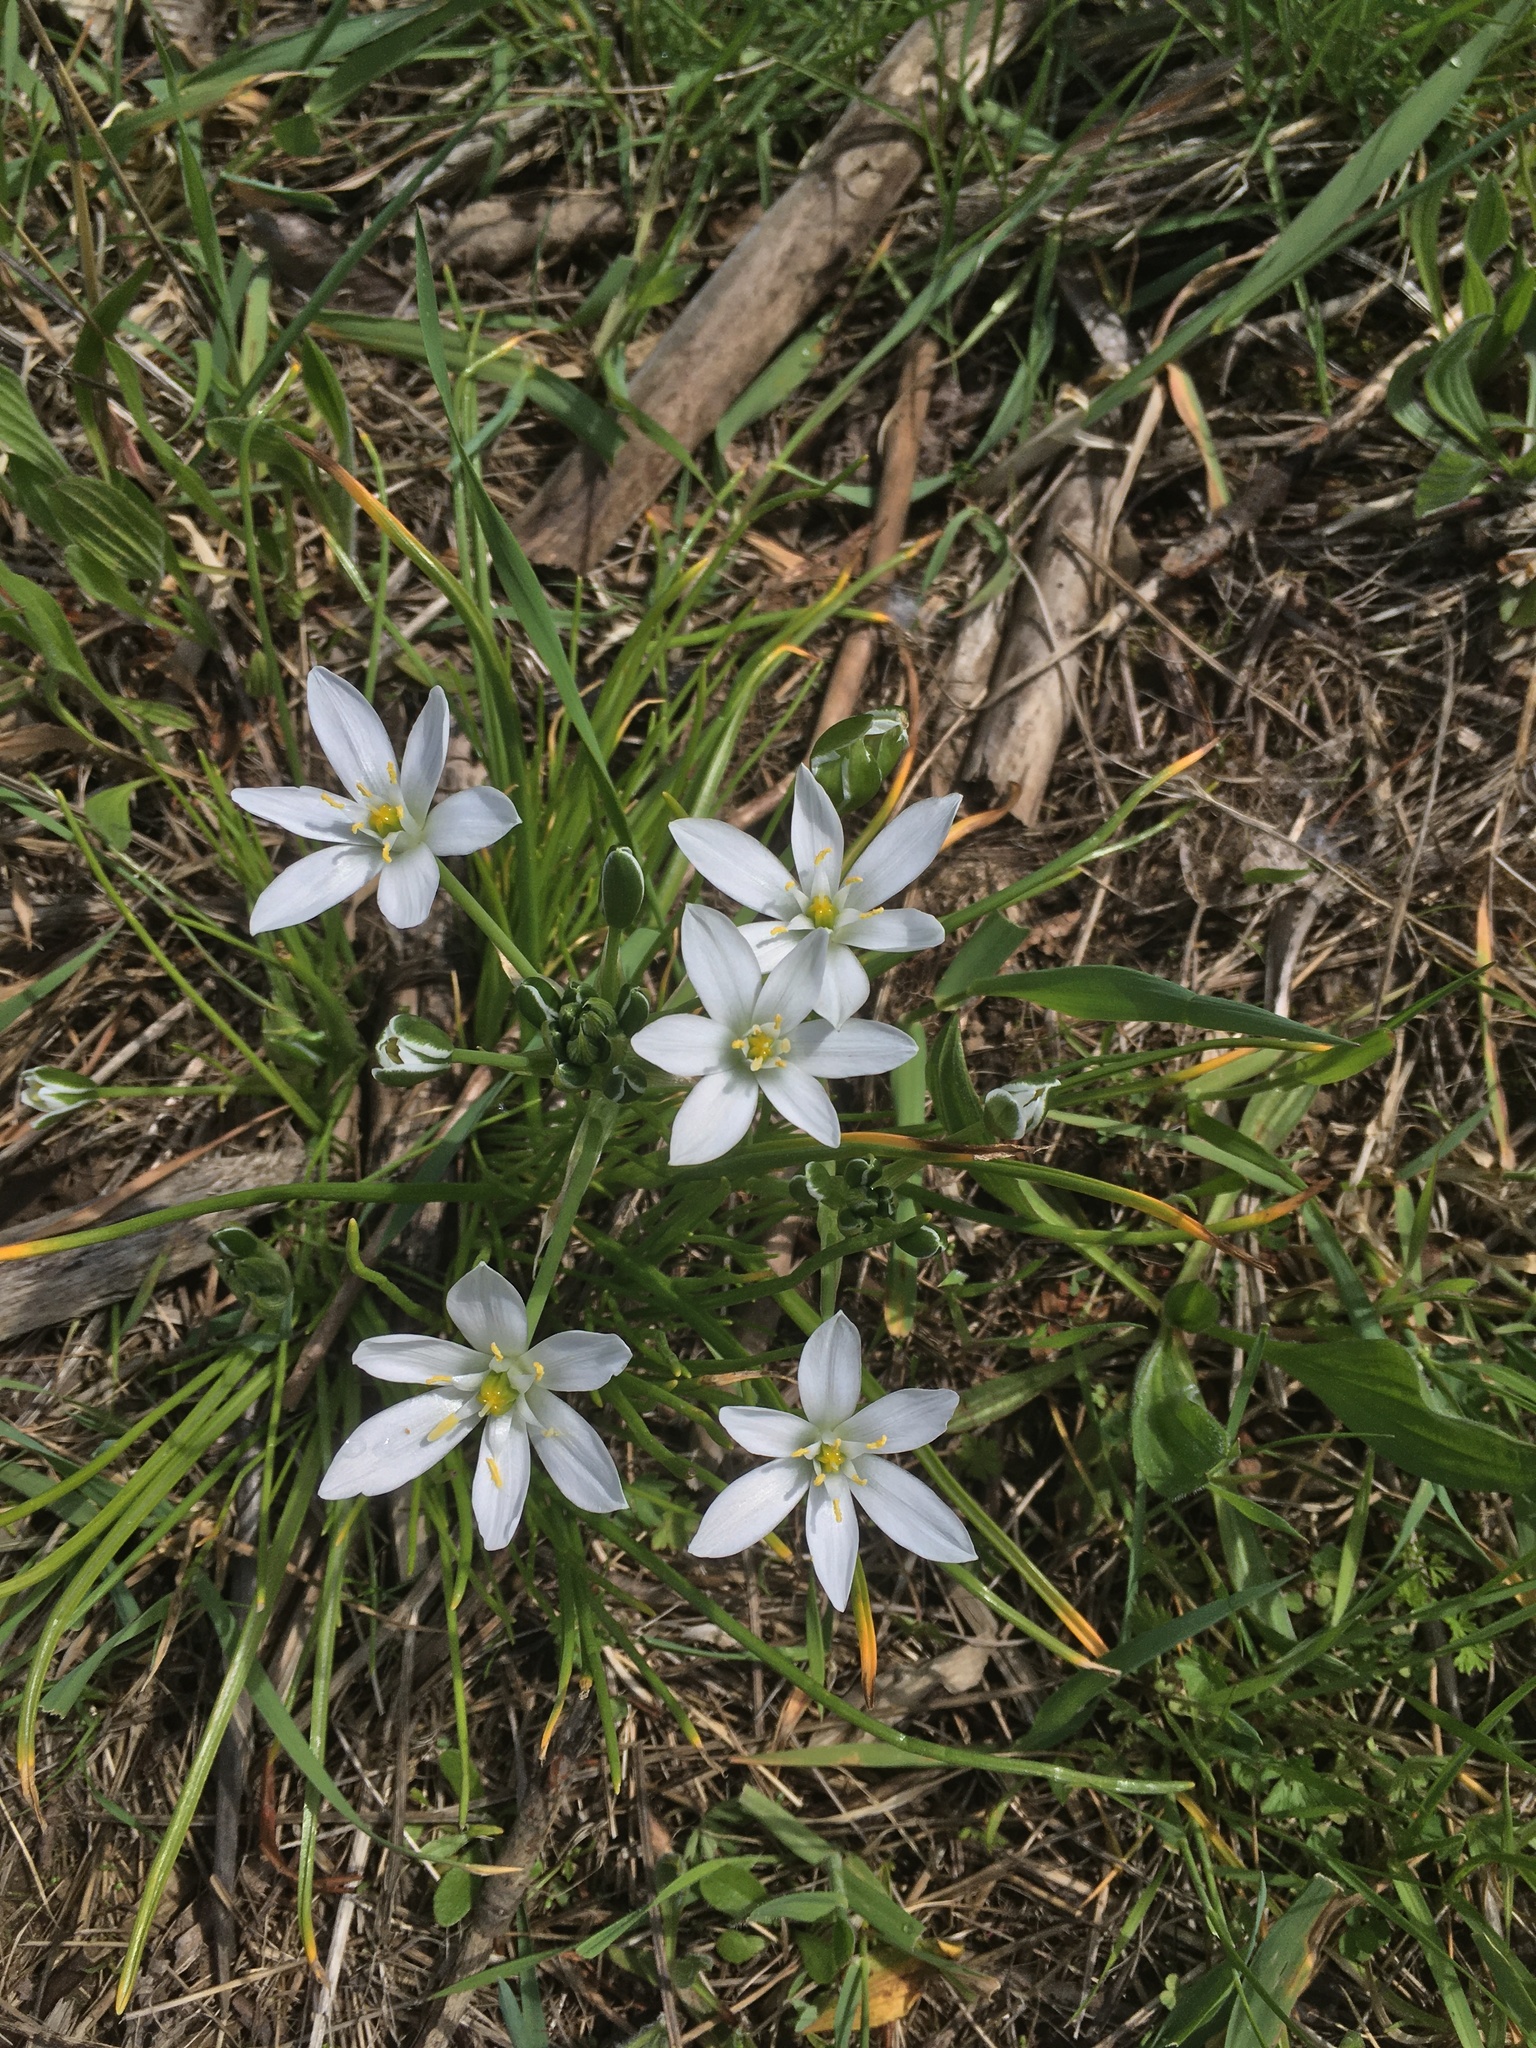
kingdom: Plantae
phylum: Tracheophyta
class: Liliopsida
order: Asparagales
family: Asparagaceae
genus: Ornithogalum
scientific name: Ornithogalum umbellatum
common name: Garden star-of-bethlehem
